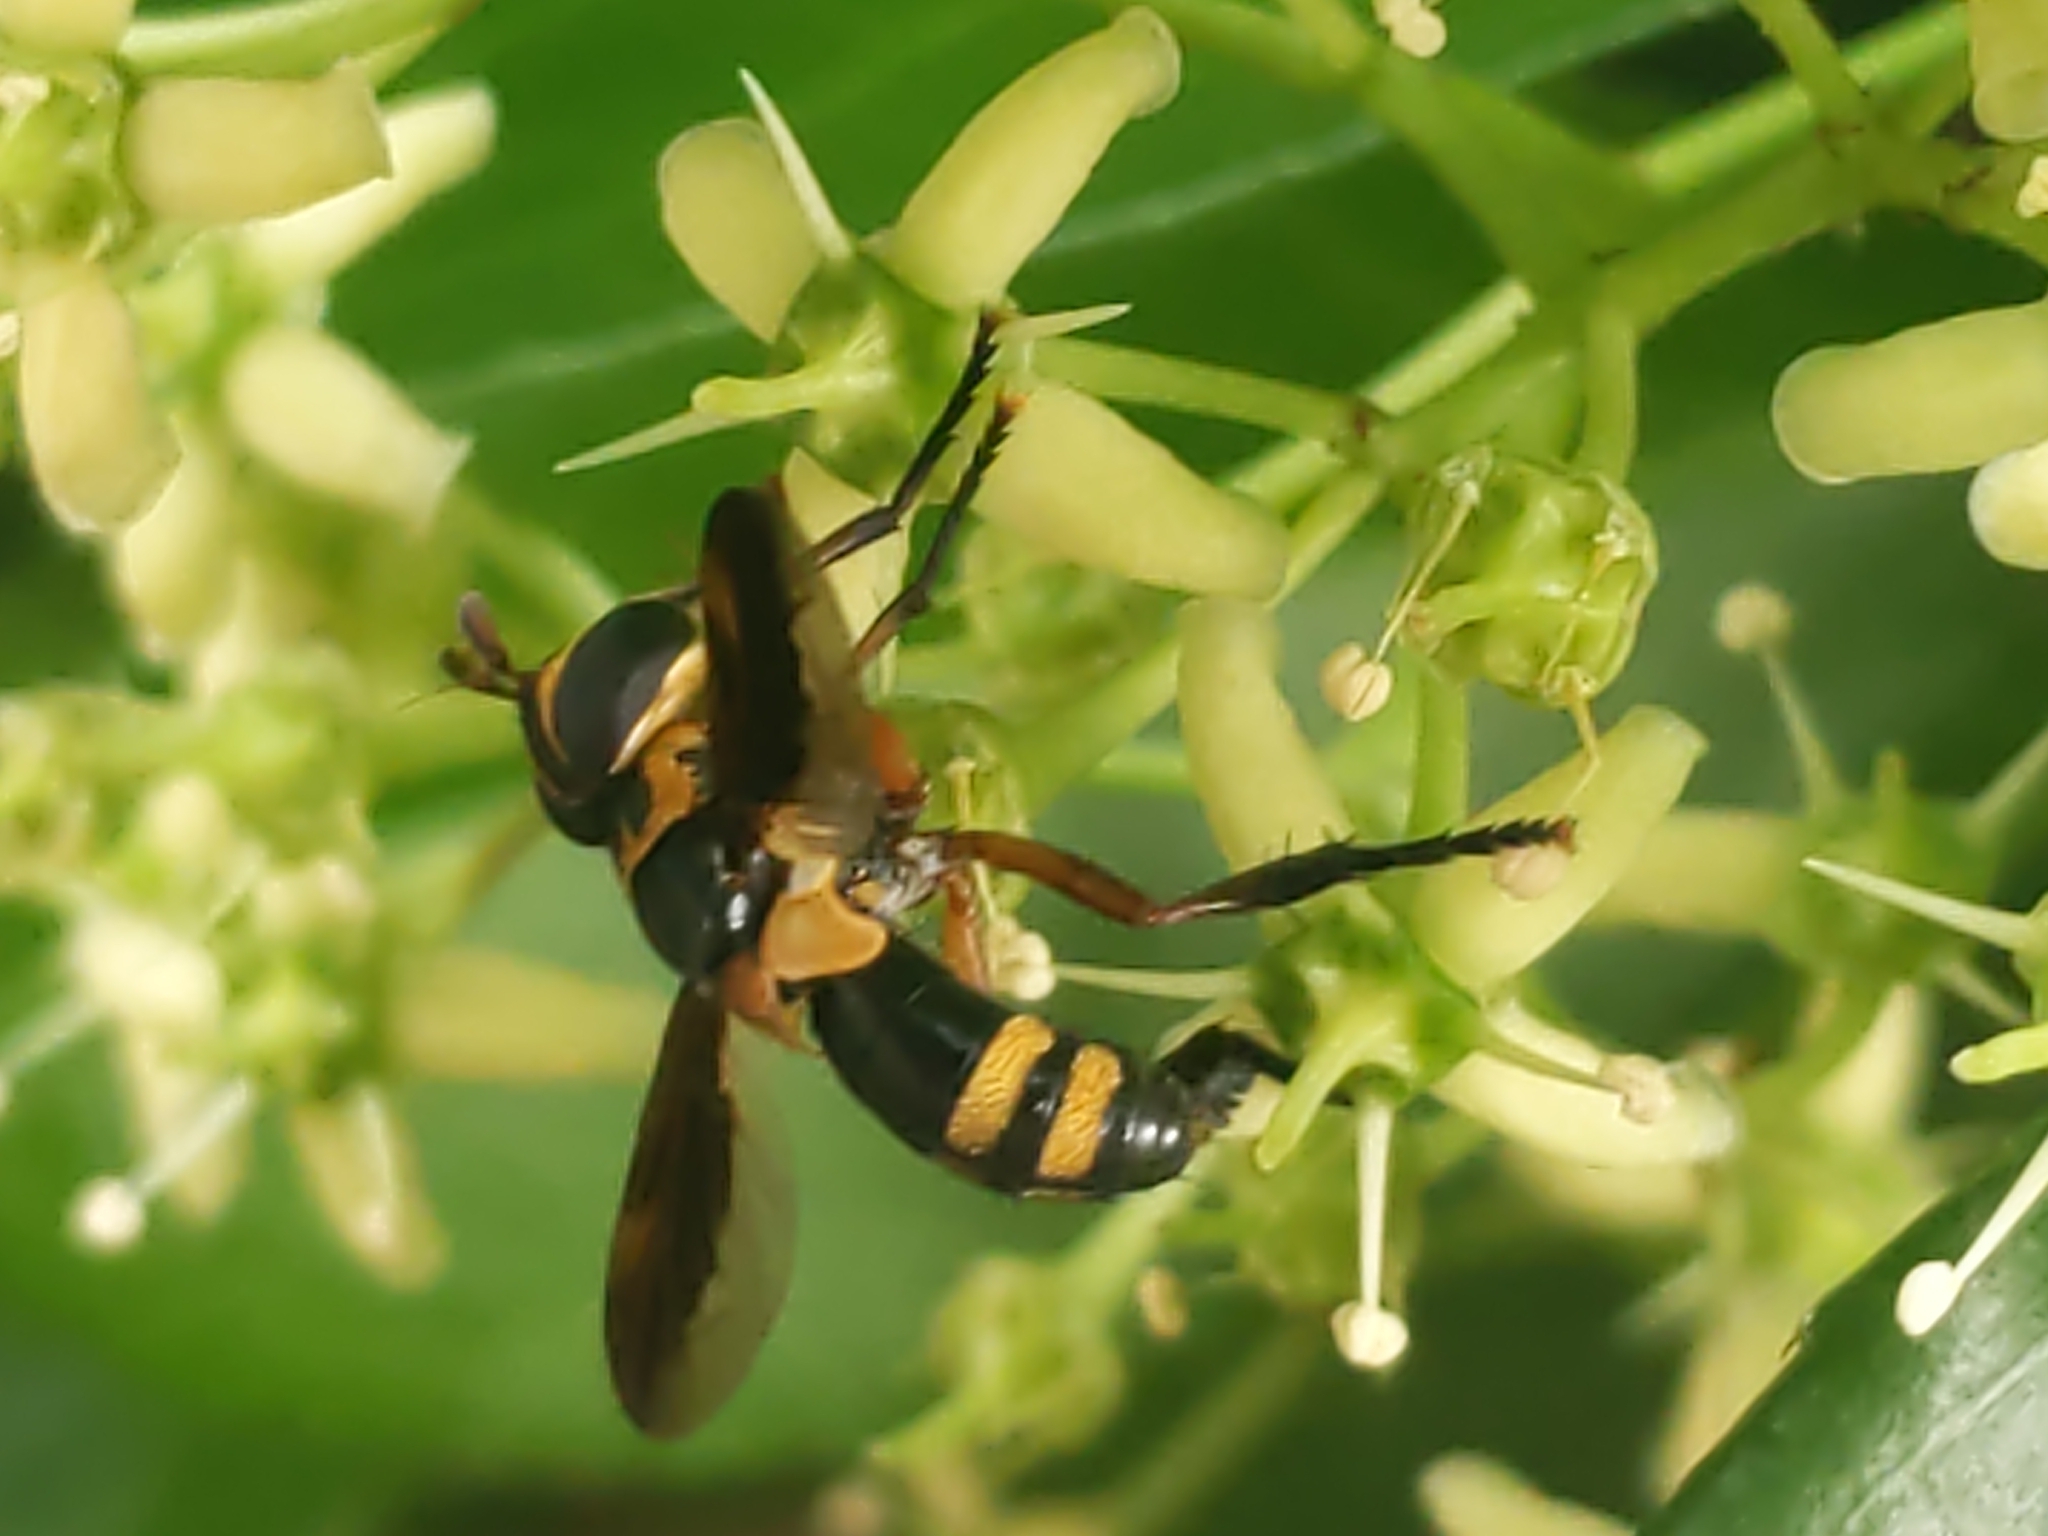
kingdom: Animalia
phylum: Arthropoda
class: Insecta
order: Diptera
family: Tachinidae
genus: Trichopoda
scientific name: Trichopoda plumipes
